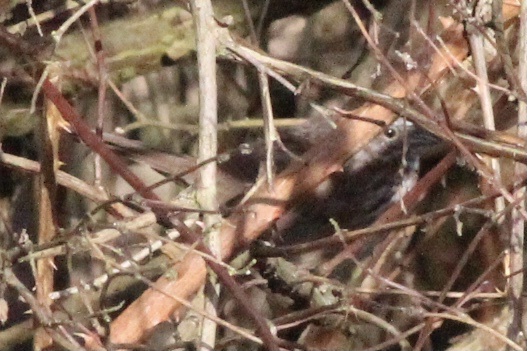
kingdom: Animalia
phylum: Chordata
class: Aves
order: Passeriformes
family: Passerellidae
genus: Melospiza
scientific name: Melospiza melodia
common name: Song sparrow
